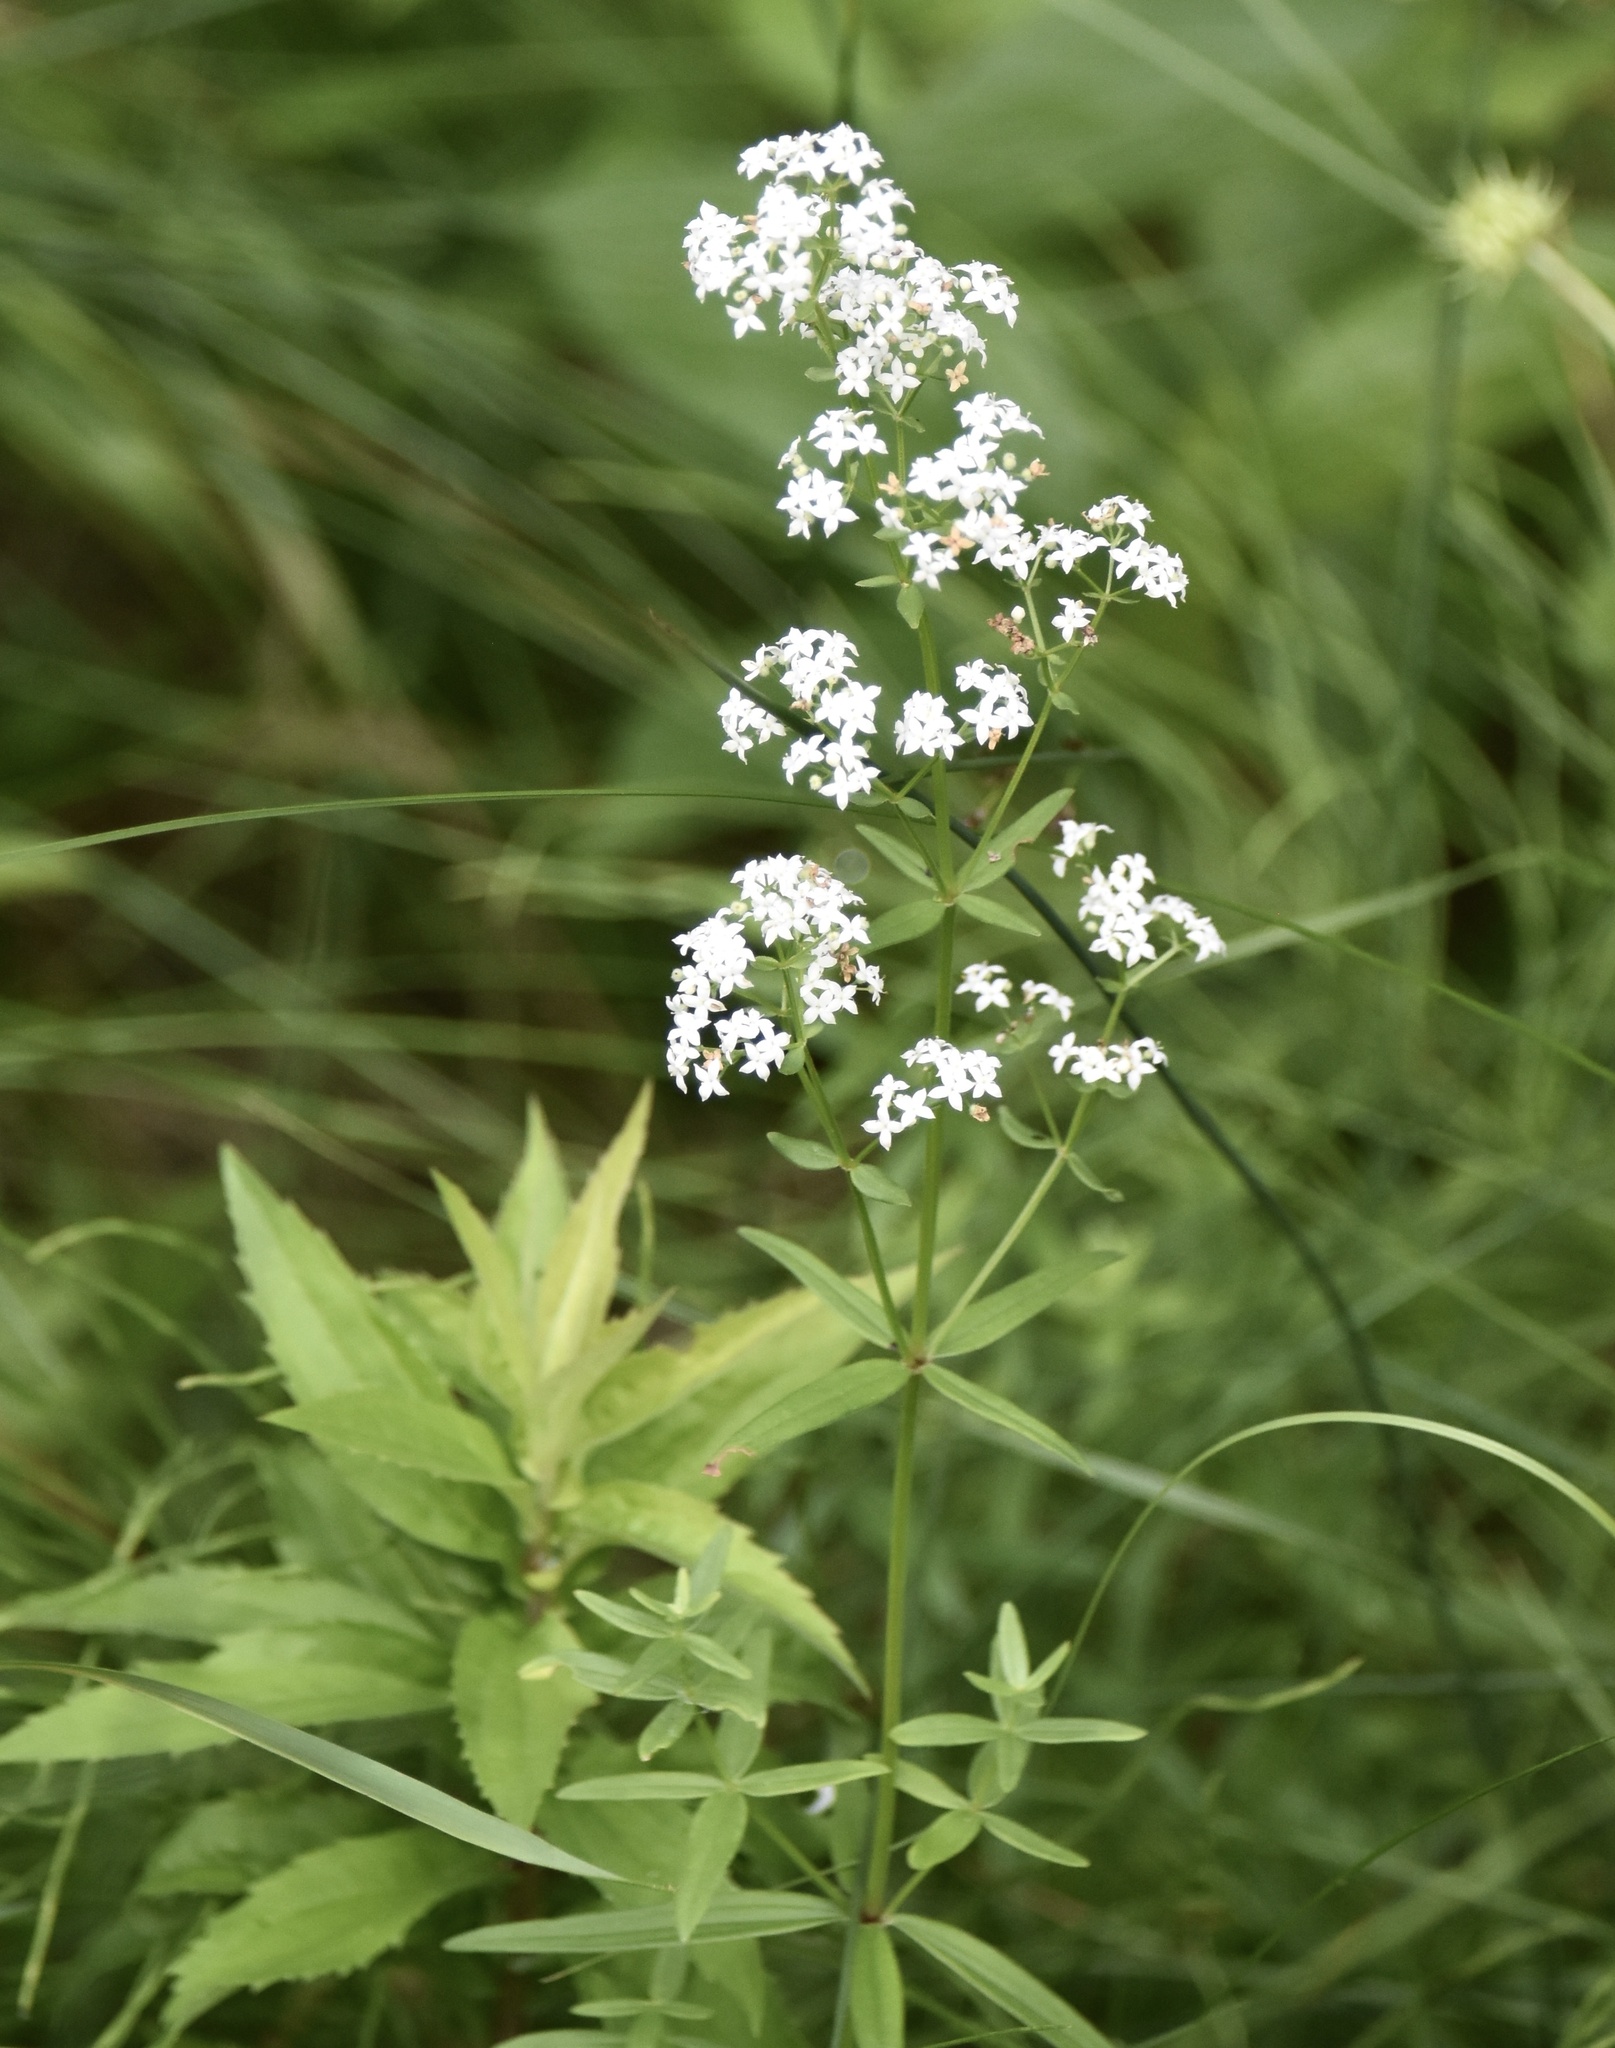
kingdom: Plantae
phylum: Tracheophyta
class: Magnoliopsida
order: Gentianales
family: Rubiaceae
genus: Galium
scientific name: Galium boreale
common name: Northern bedstraw
